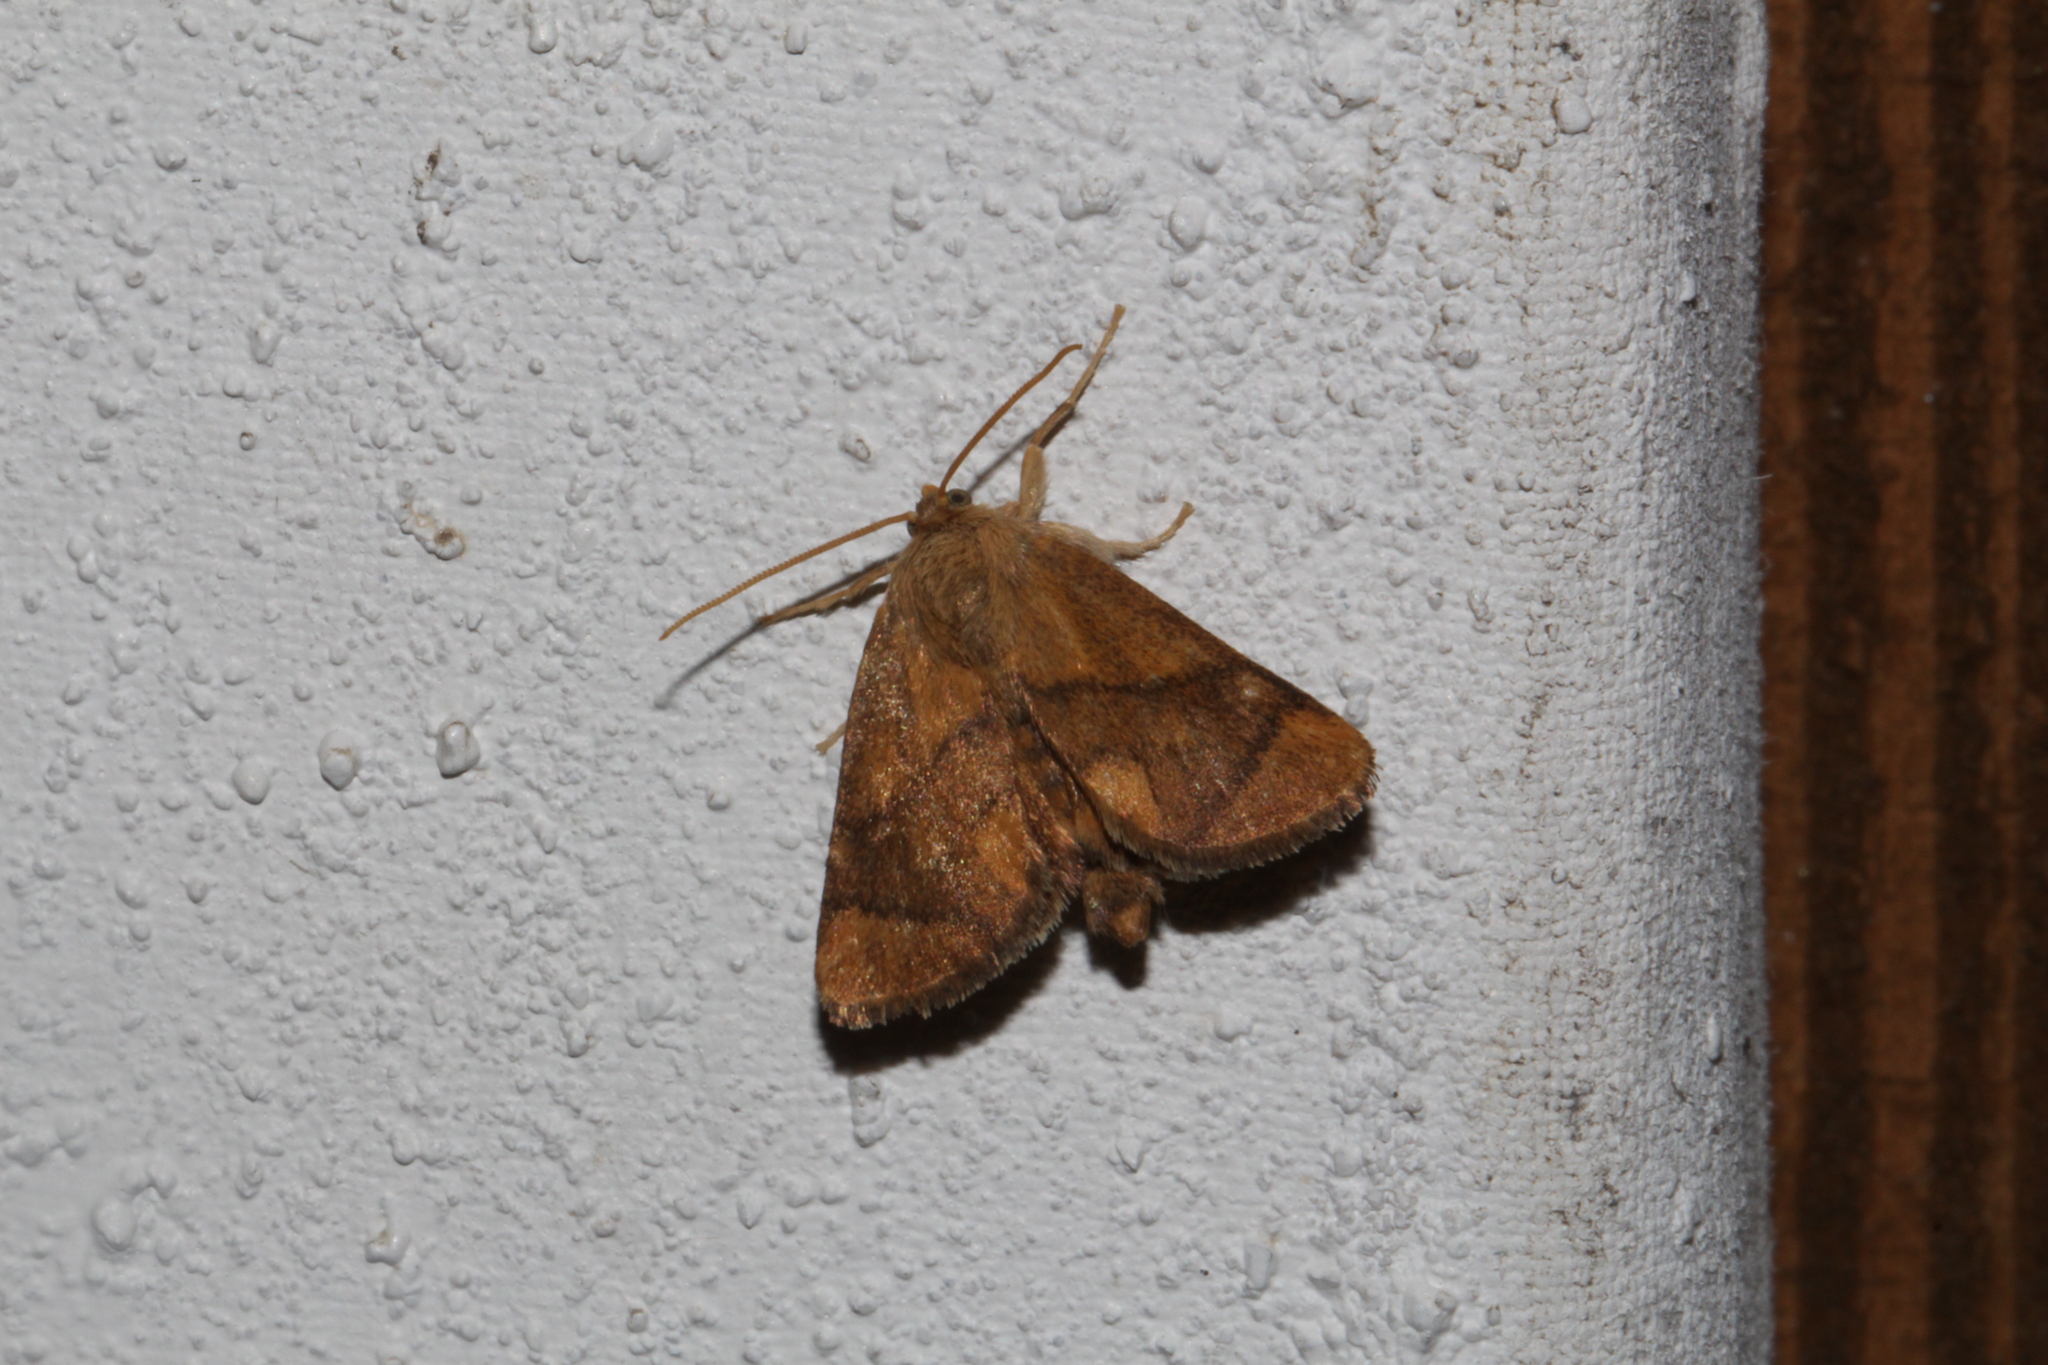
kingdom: Animalia
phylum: Arthropoda
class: Insecta
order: Lepidoptera
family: Limacodidae
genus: Apoda
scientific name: Apoda limacodes
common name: Festoon
